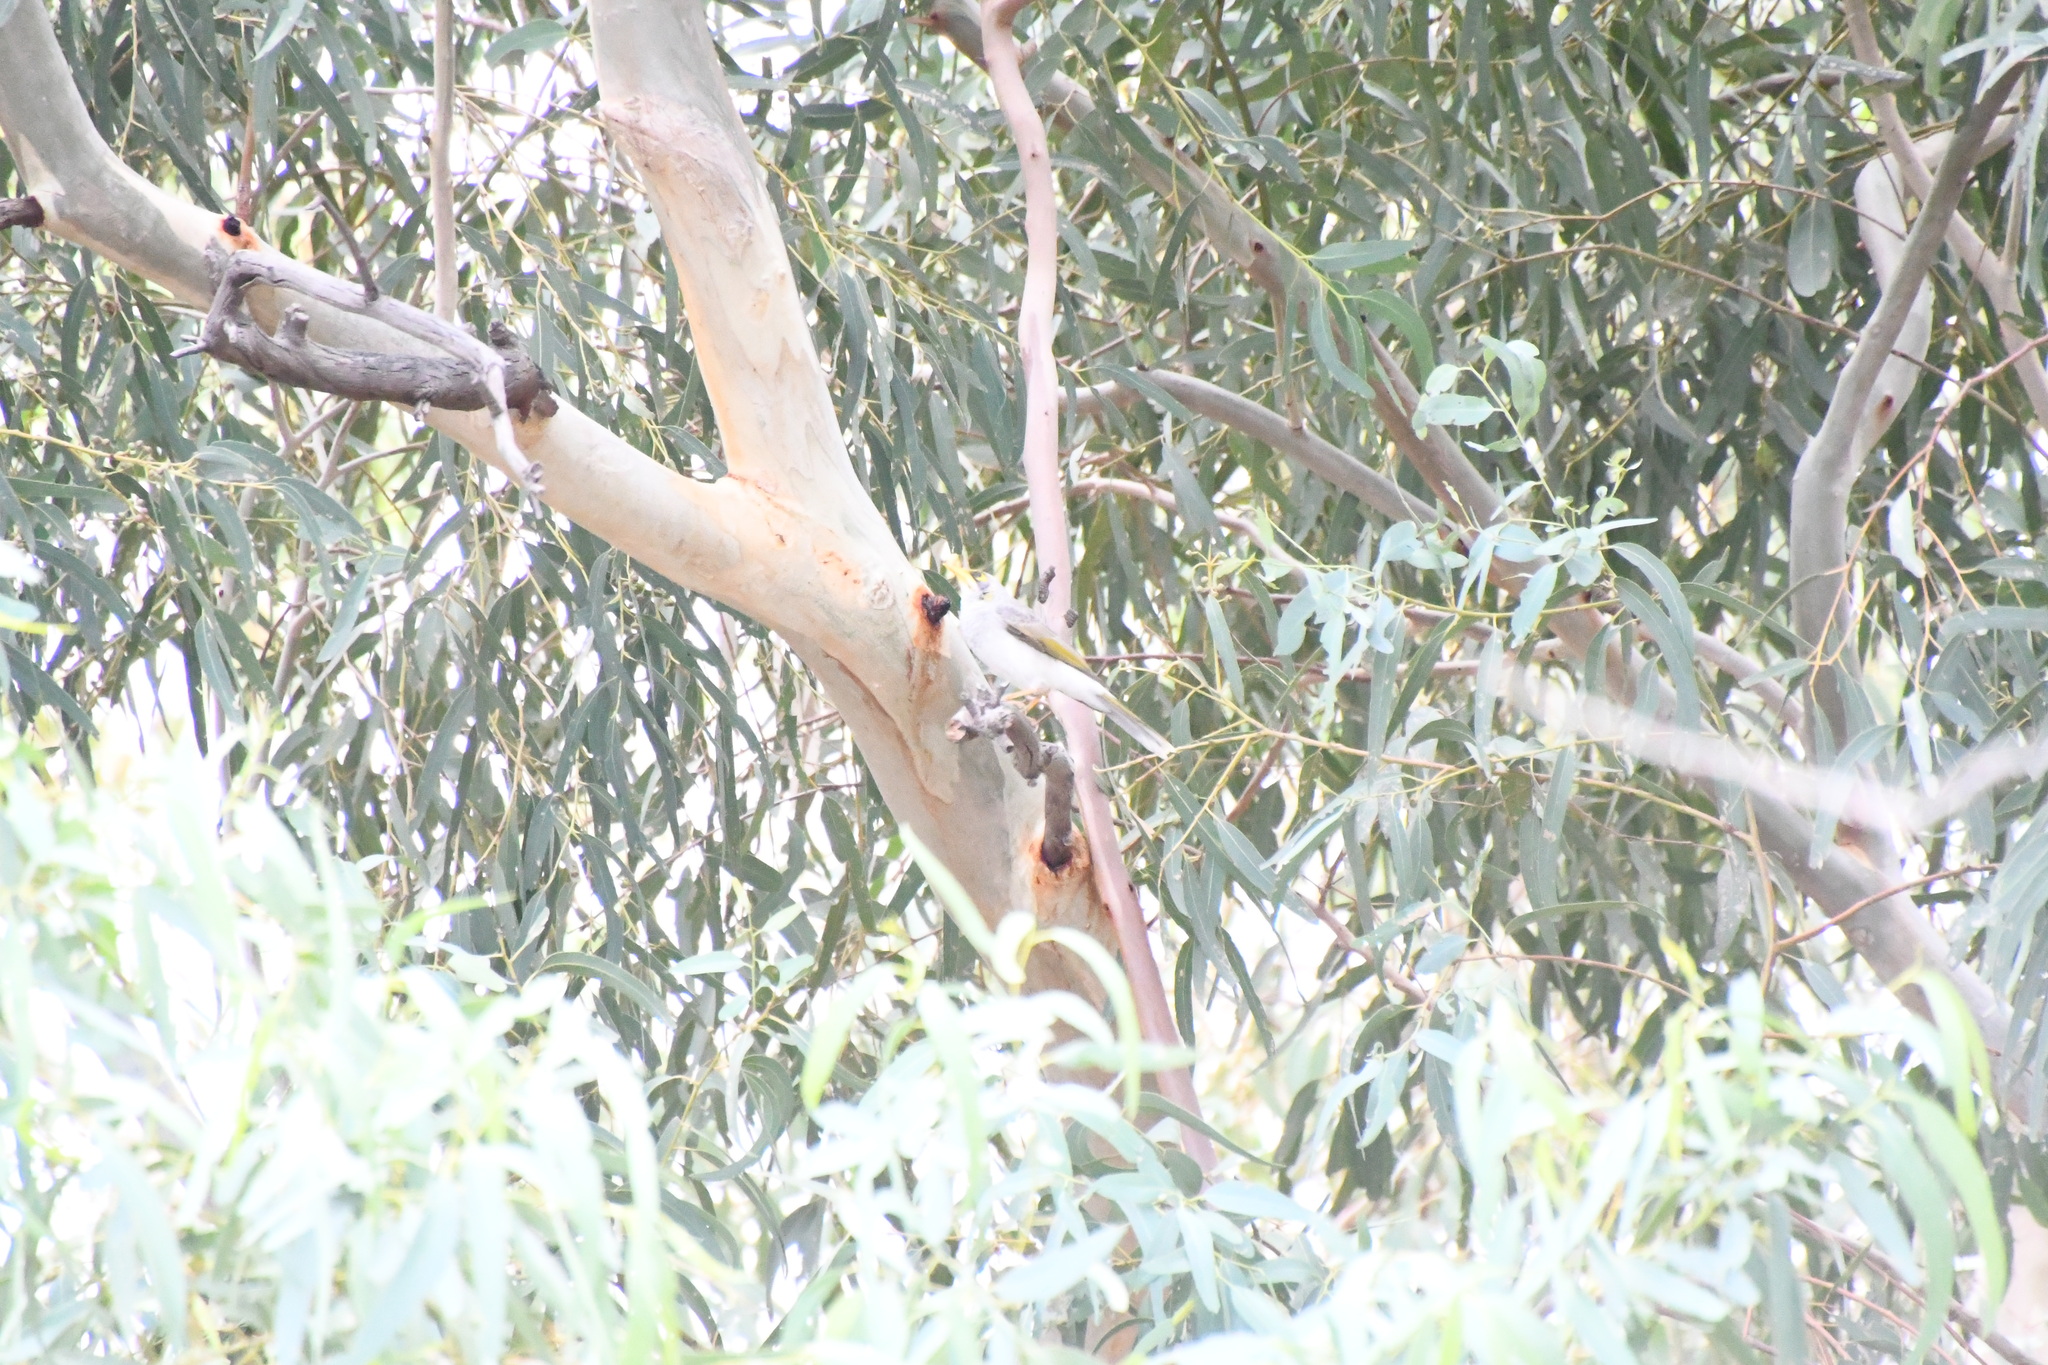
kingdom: Animalia
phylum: Chordata
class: Aves
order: Passeriformes
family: Meliphagidae
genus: Manorina
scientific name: Manorina flavigula
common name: Yellow-throated miner
